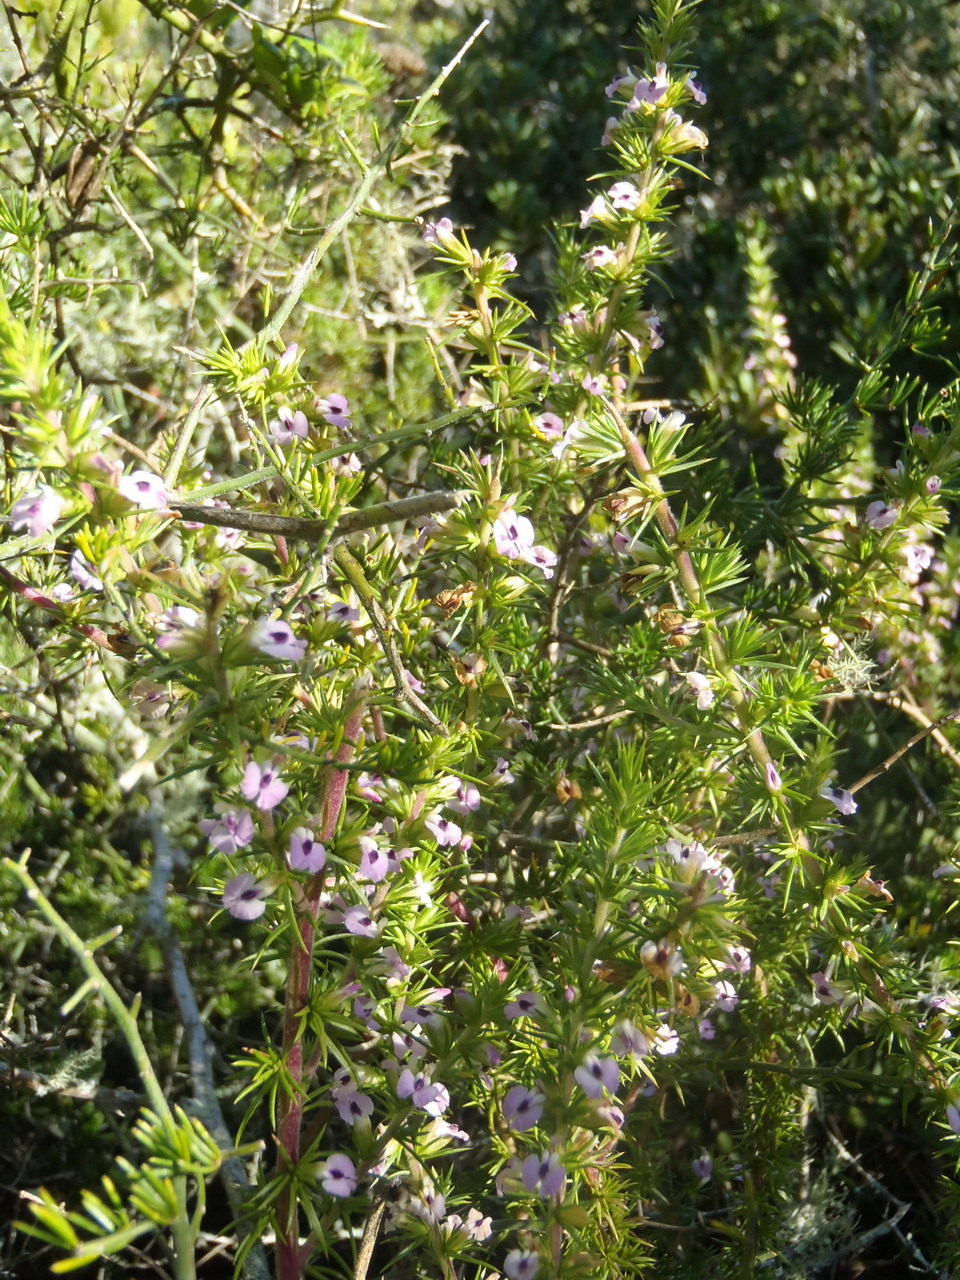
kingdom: Plantae
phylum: Tracheophyta
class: Magnoliopsida
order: Fabales
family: Polygalaceae
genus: Muraltia
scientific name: Muraltia ericifolia
